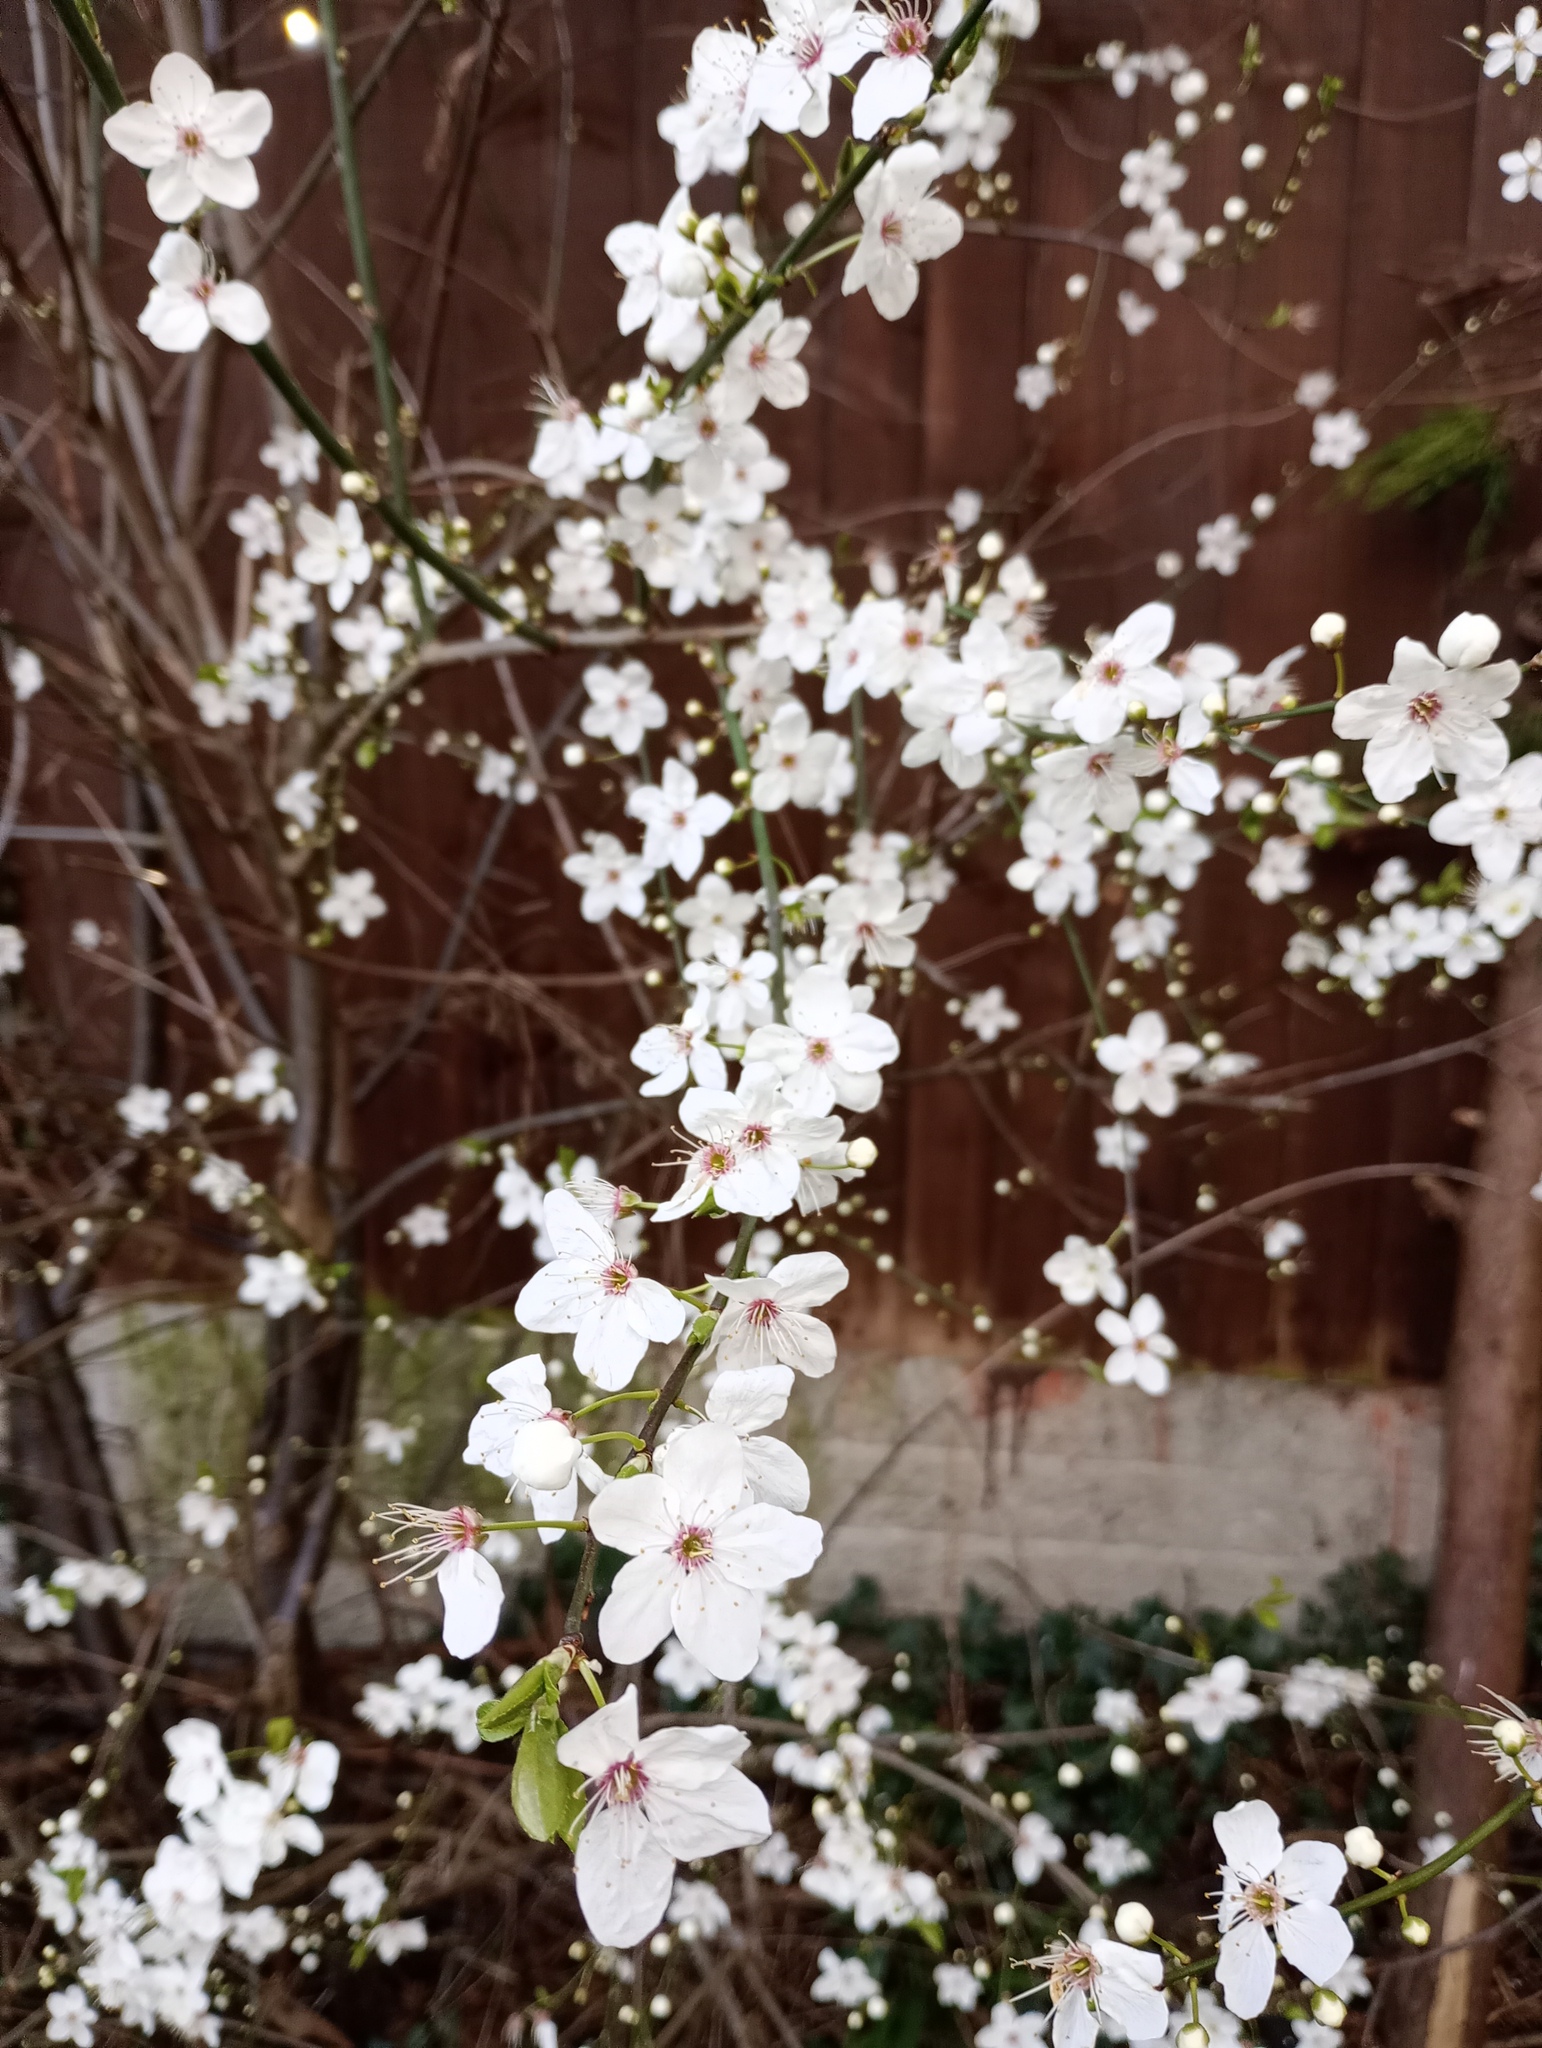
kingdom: Plantae
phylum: Tracheophyta
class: Magnoliopsida
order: Rosales
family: Rosaceae
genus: Prunus
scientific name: Prunus cerasifera
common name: Cherry plum
